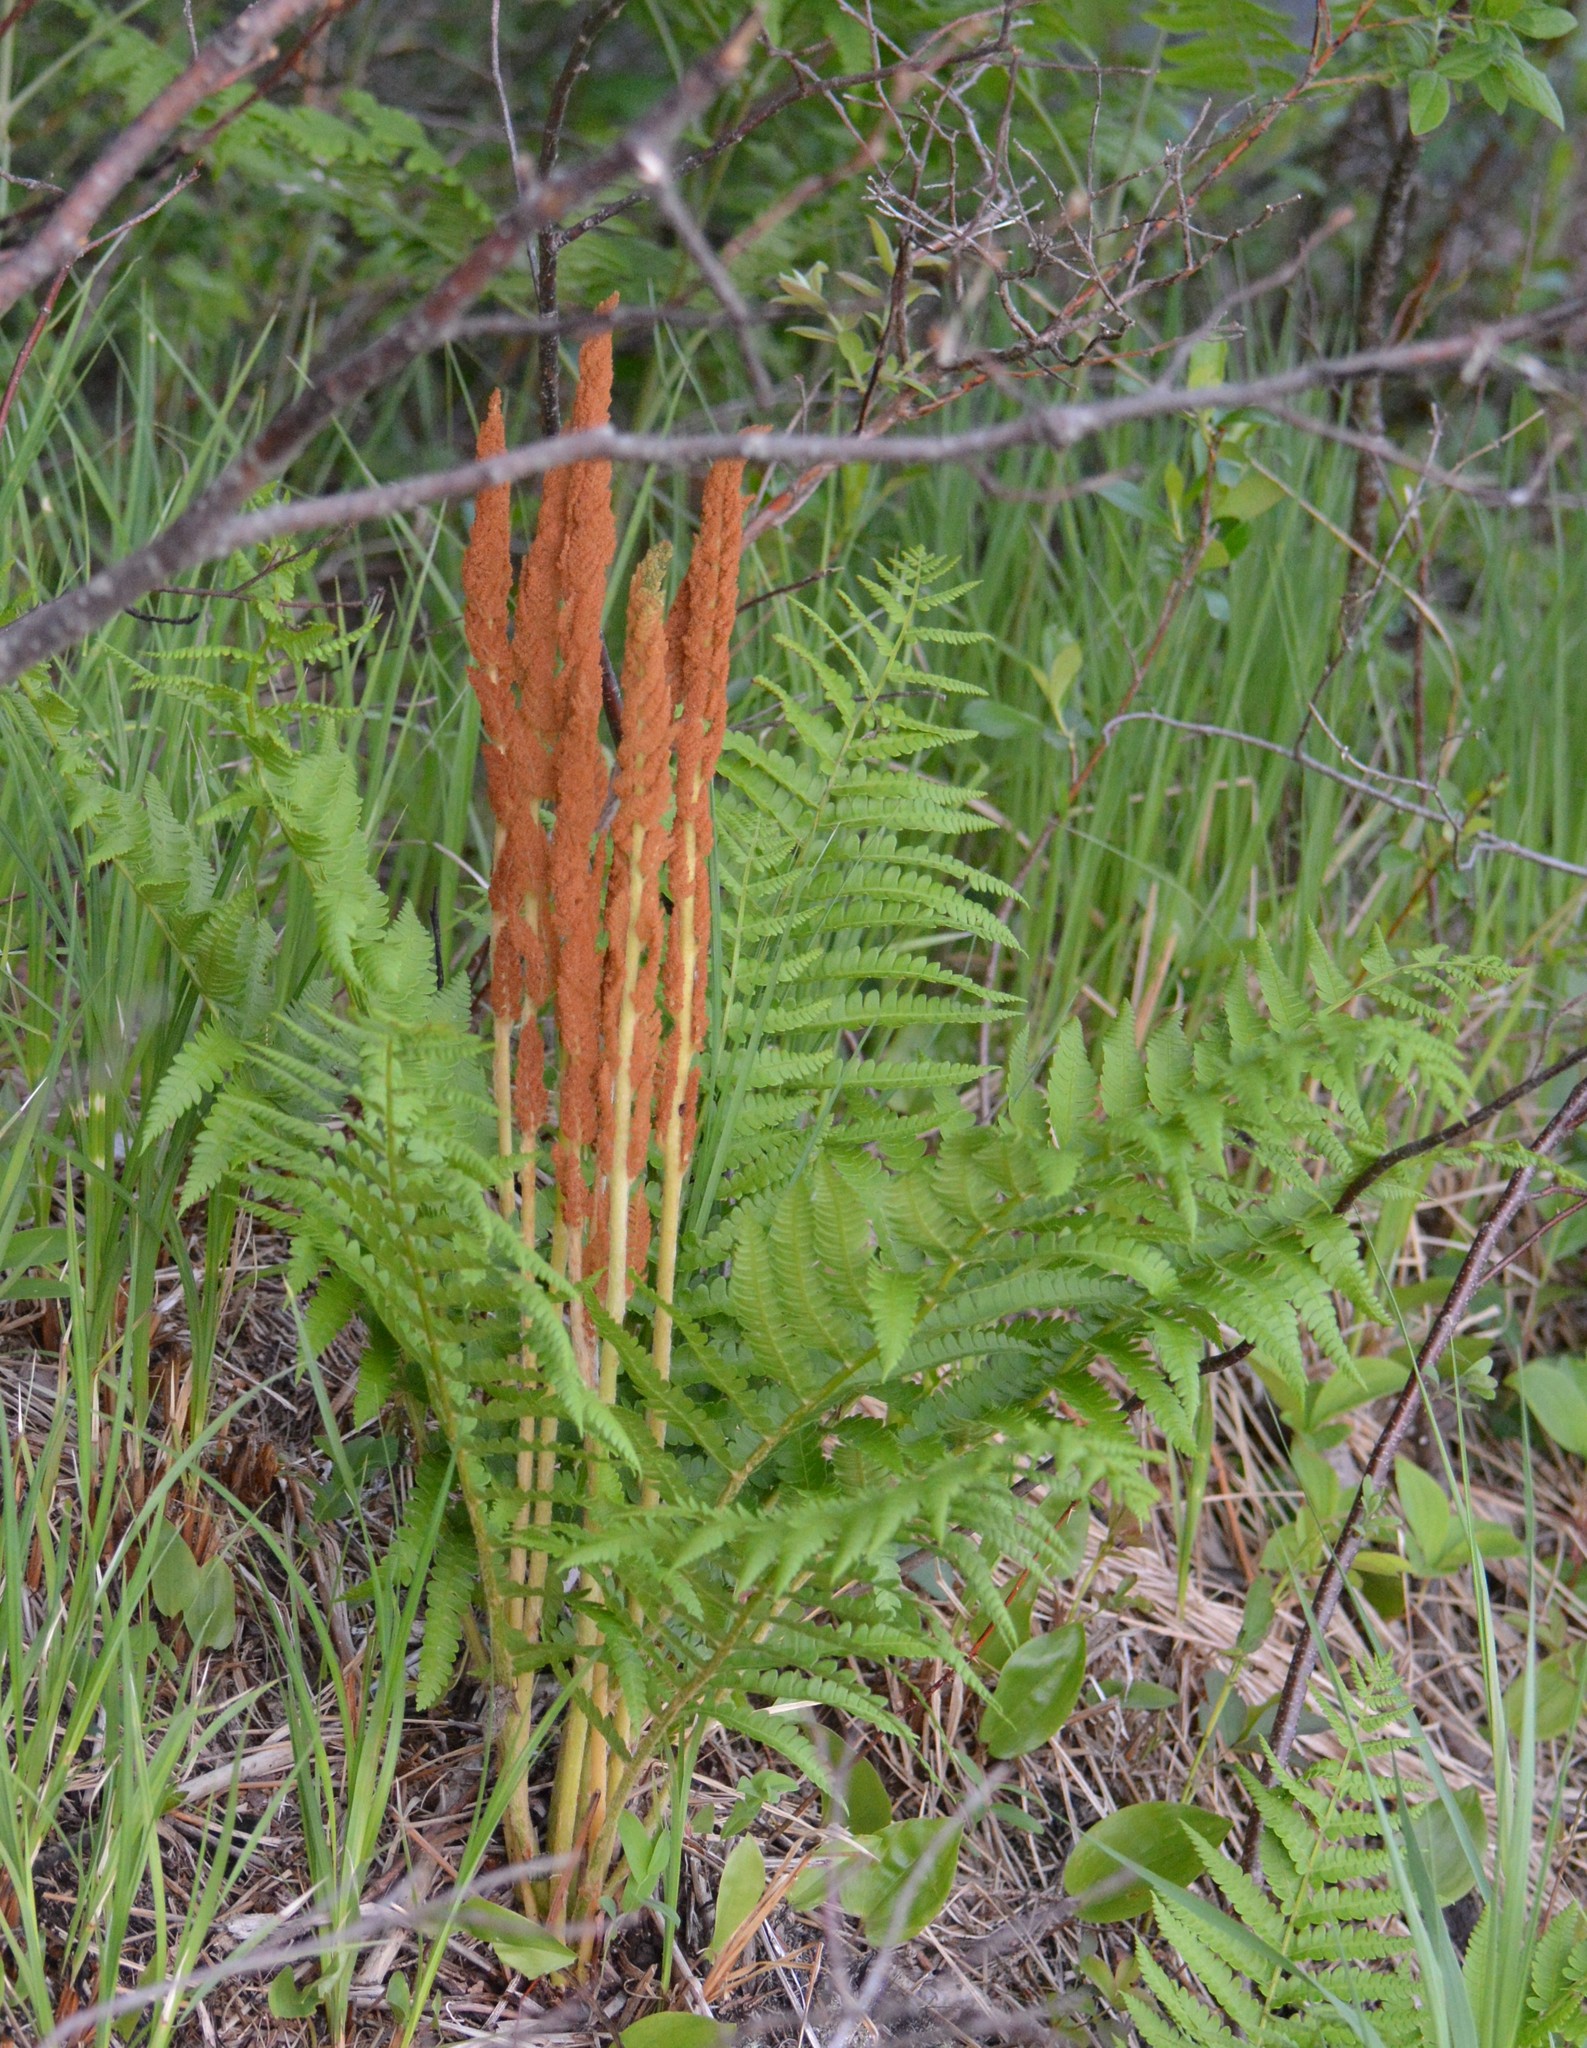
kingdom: Plantae
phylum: Tracheophyta
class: Polypodiopsida
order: Osmundales
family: Osmundaceae
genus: Osmundastrum
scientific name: Osmundastrum cinnamomeum
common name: Cinnamon fern
